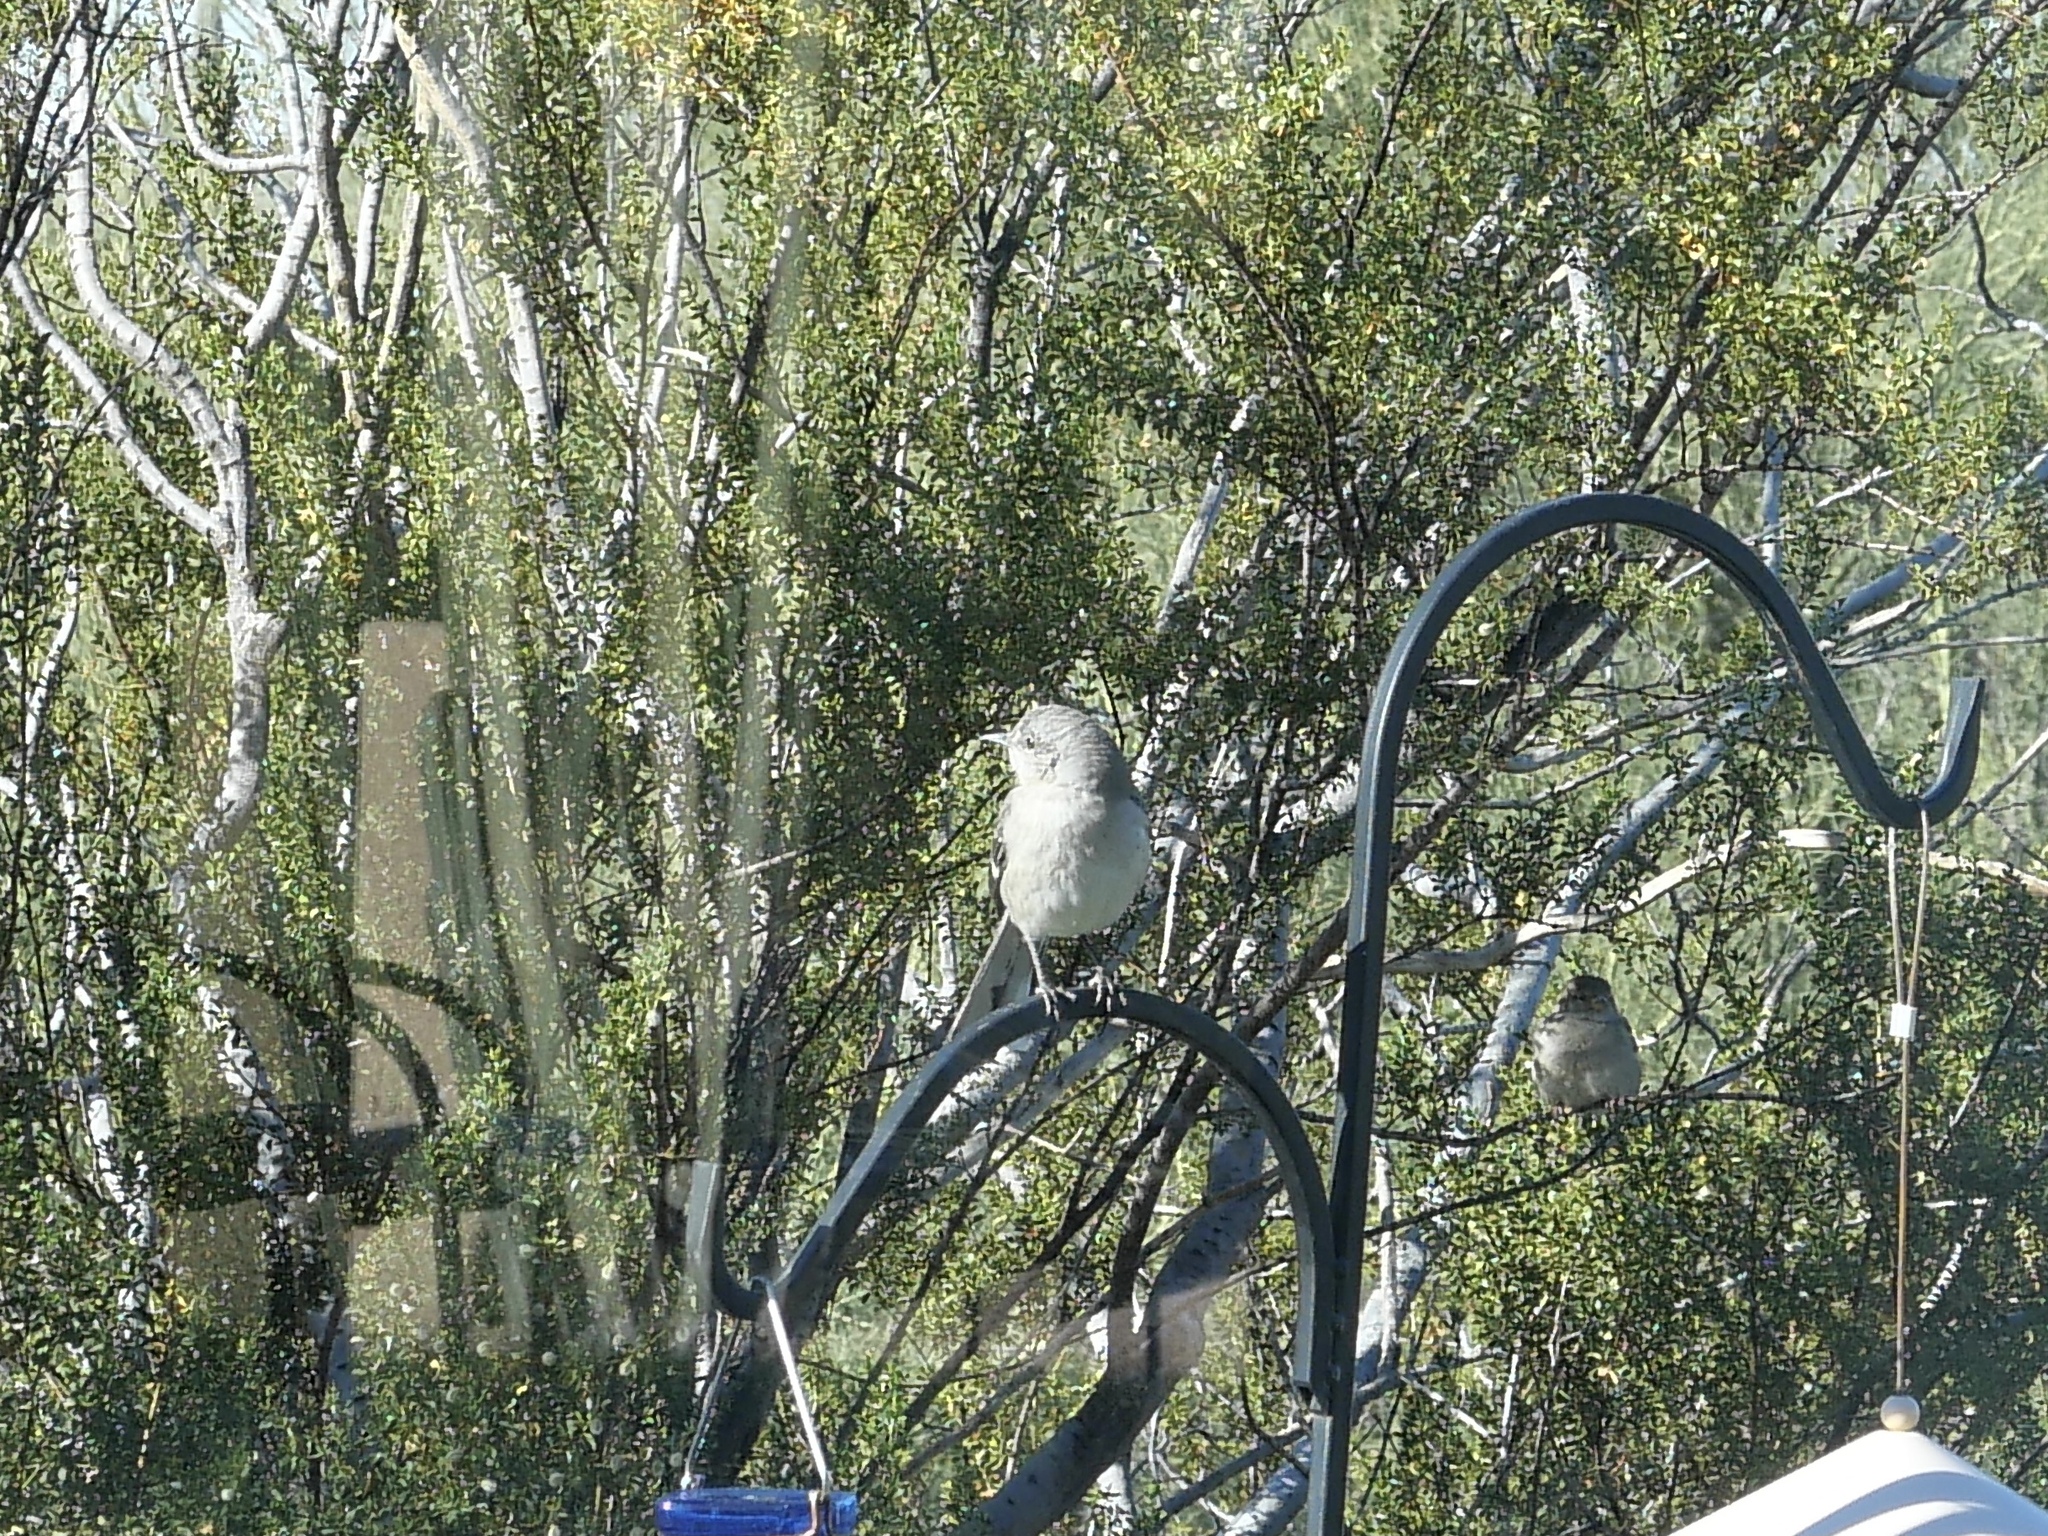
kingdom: Animalia
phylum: Chordata
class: Aves
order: Passeriformes
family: Mimidae
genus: Mimus
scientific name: Mimus polyglottos
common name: Northern mockingbird
